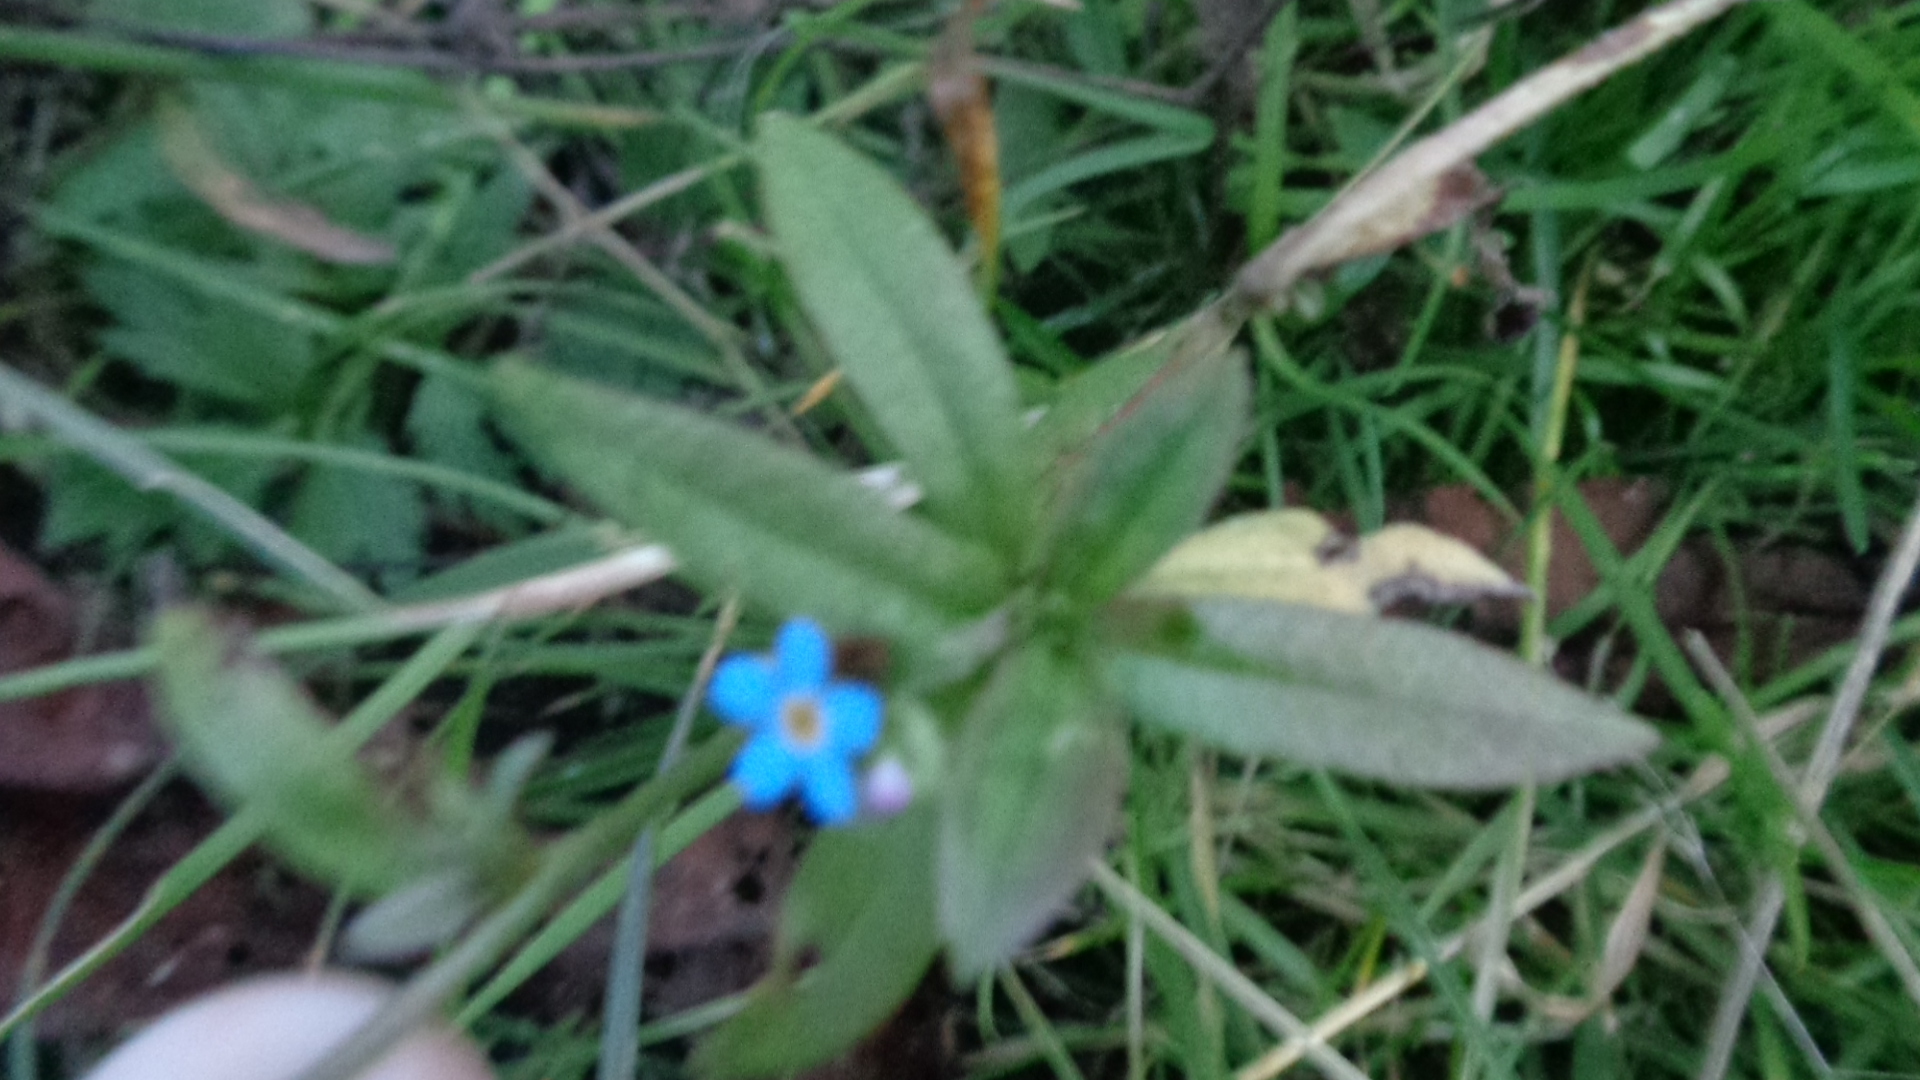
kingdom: Plantae
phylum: Tracheophyta
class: Magnoliopsida
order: Boraginales
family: Boraginaceae
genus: Myosotis
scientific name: Myosotis scorpioides
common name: Water forget-me-not
